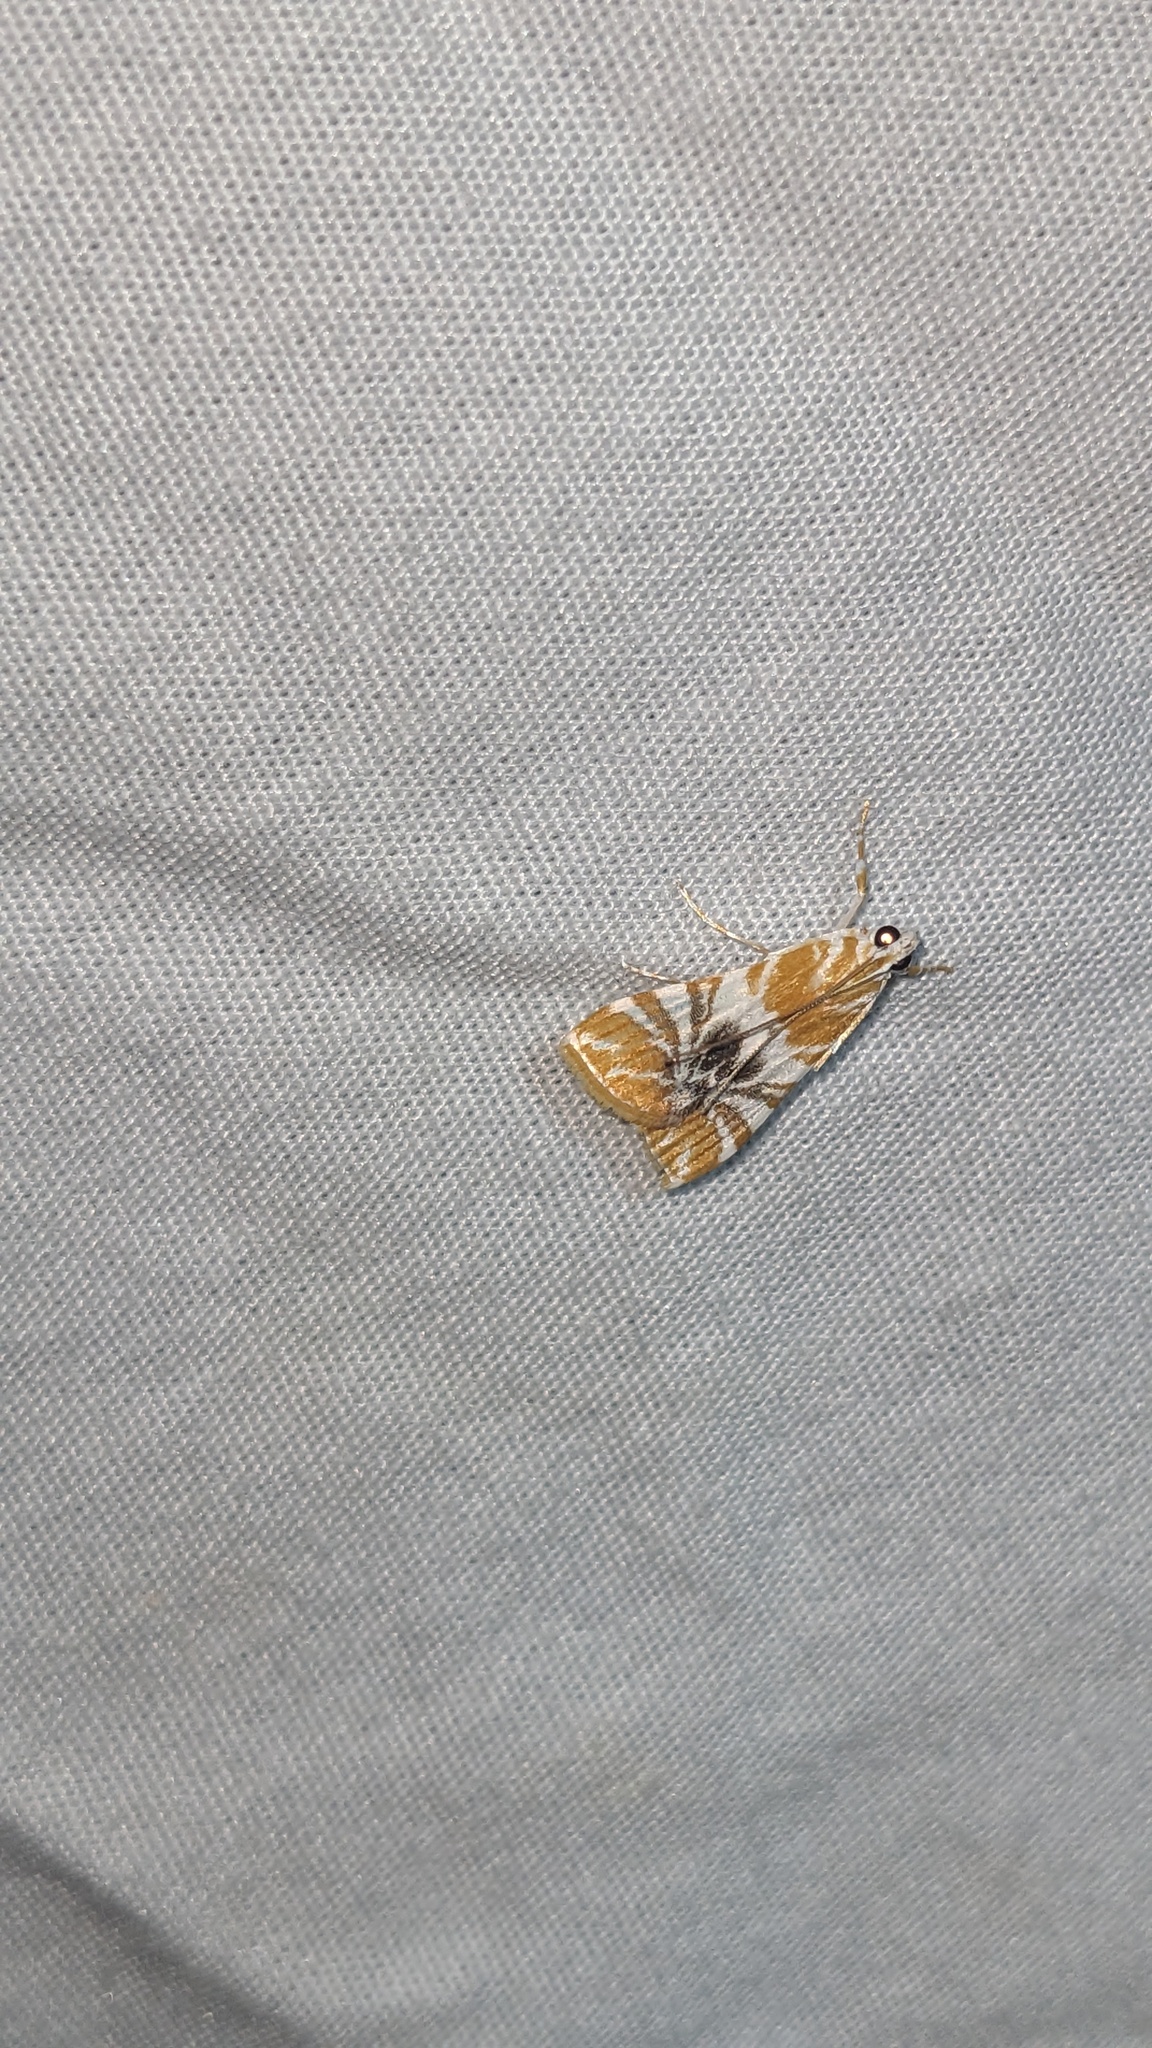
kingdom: Animalia
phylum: Arthropoda
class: Insecta
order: Lepidoptera
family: Crambidae
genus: Macaretaera
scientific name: Macaretaera hesperis
